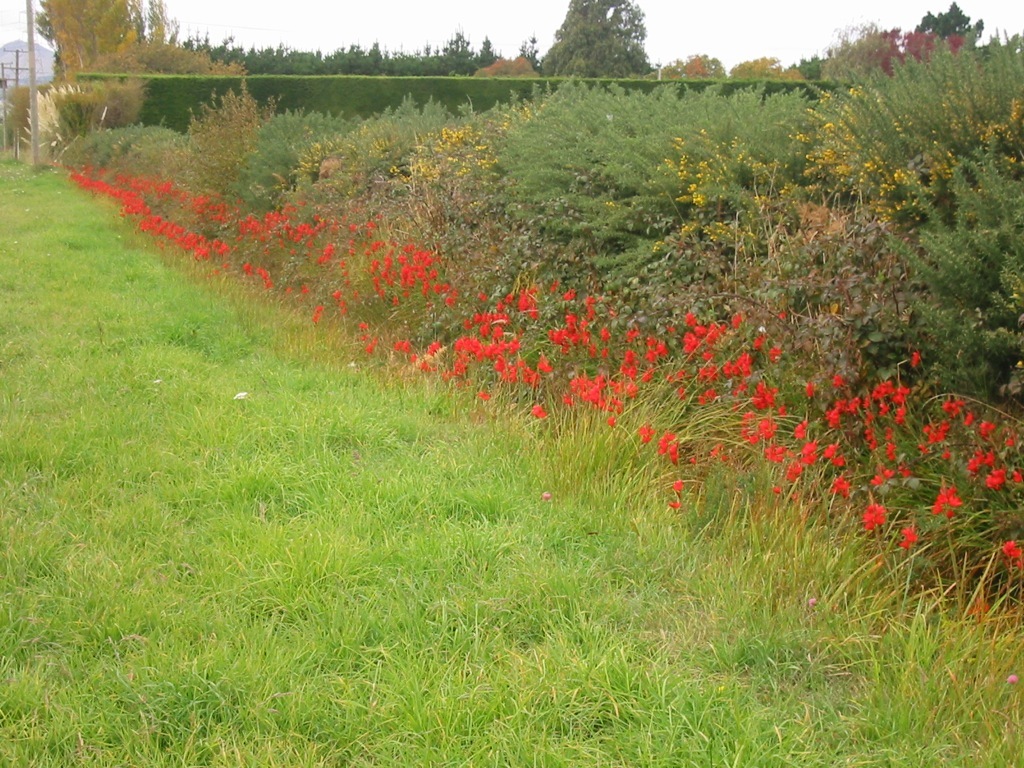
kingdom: Plantae
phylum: Tracheophyta
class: Liliopsida
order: Asparagales
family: Iridaceae
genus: Hesperantha
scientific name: Hesperantha coccinea
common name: River-lily
